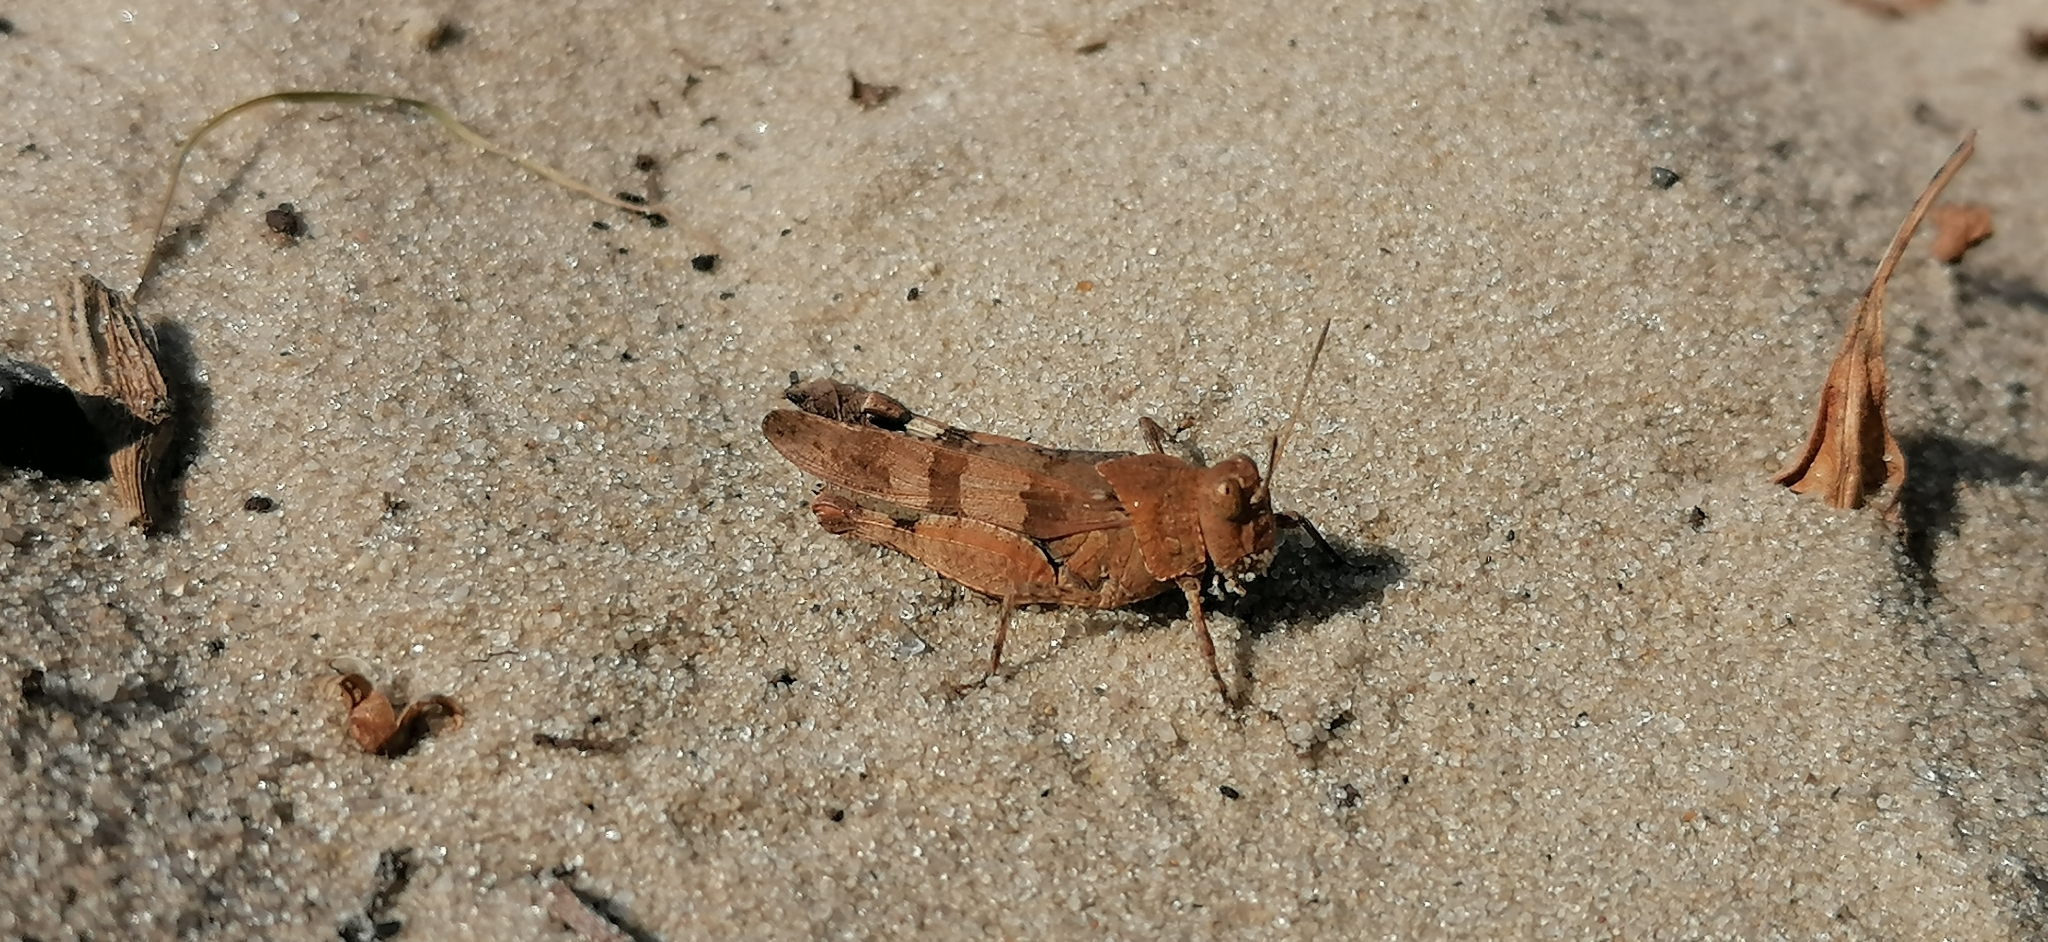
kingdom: Animalia
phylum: Arthropoda
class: Insecta
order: Orthoptera
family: Acrididae
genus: Oedipoda
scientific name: Oedipoda caerulescens
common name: Blue-winged grasshopper
